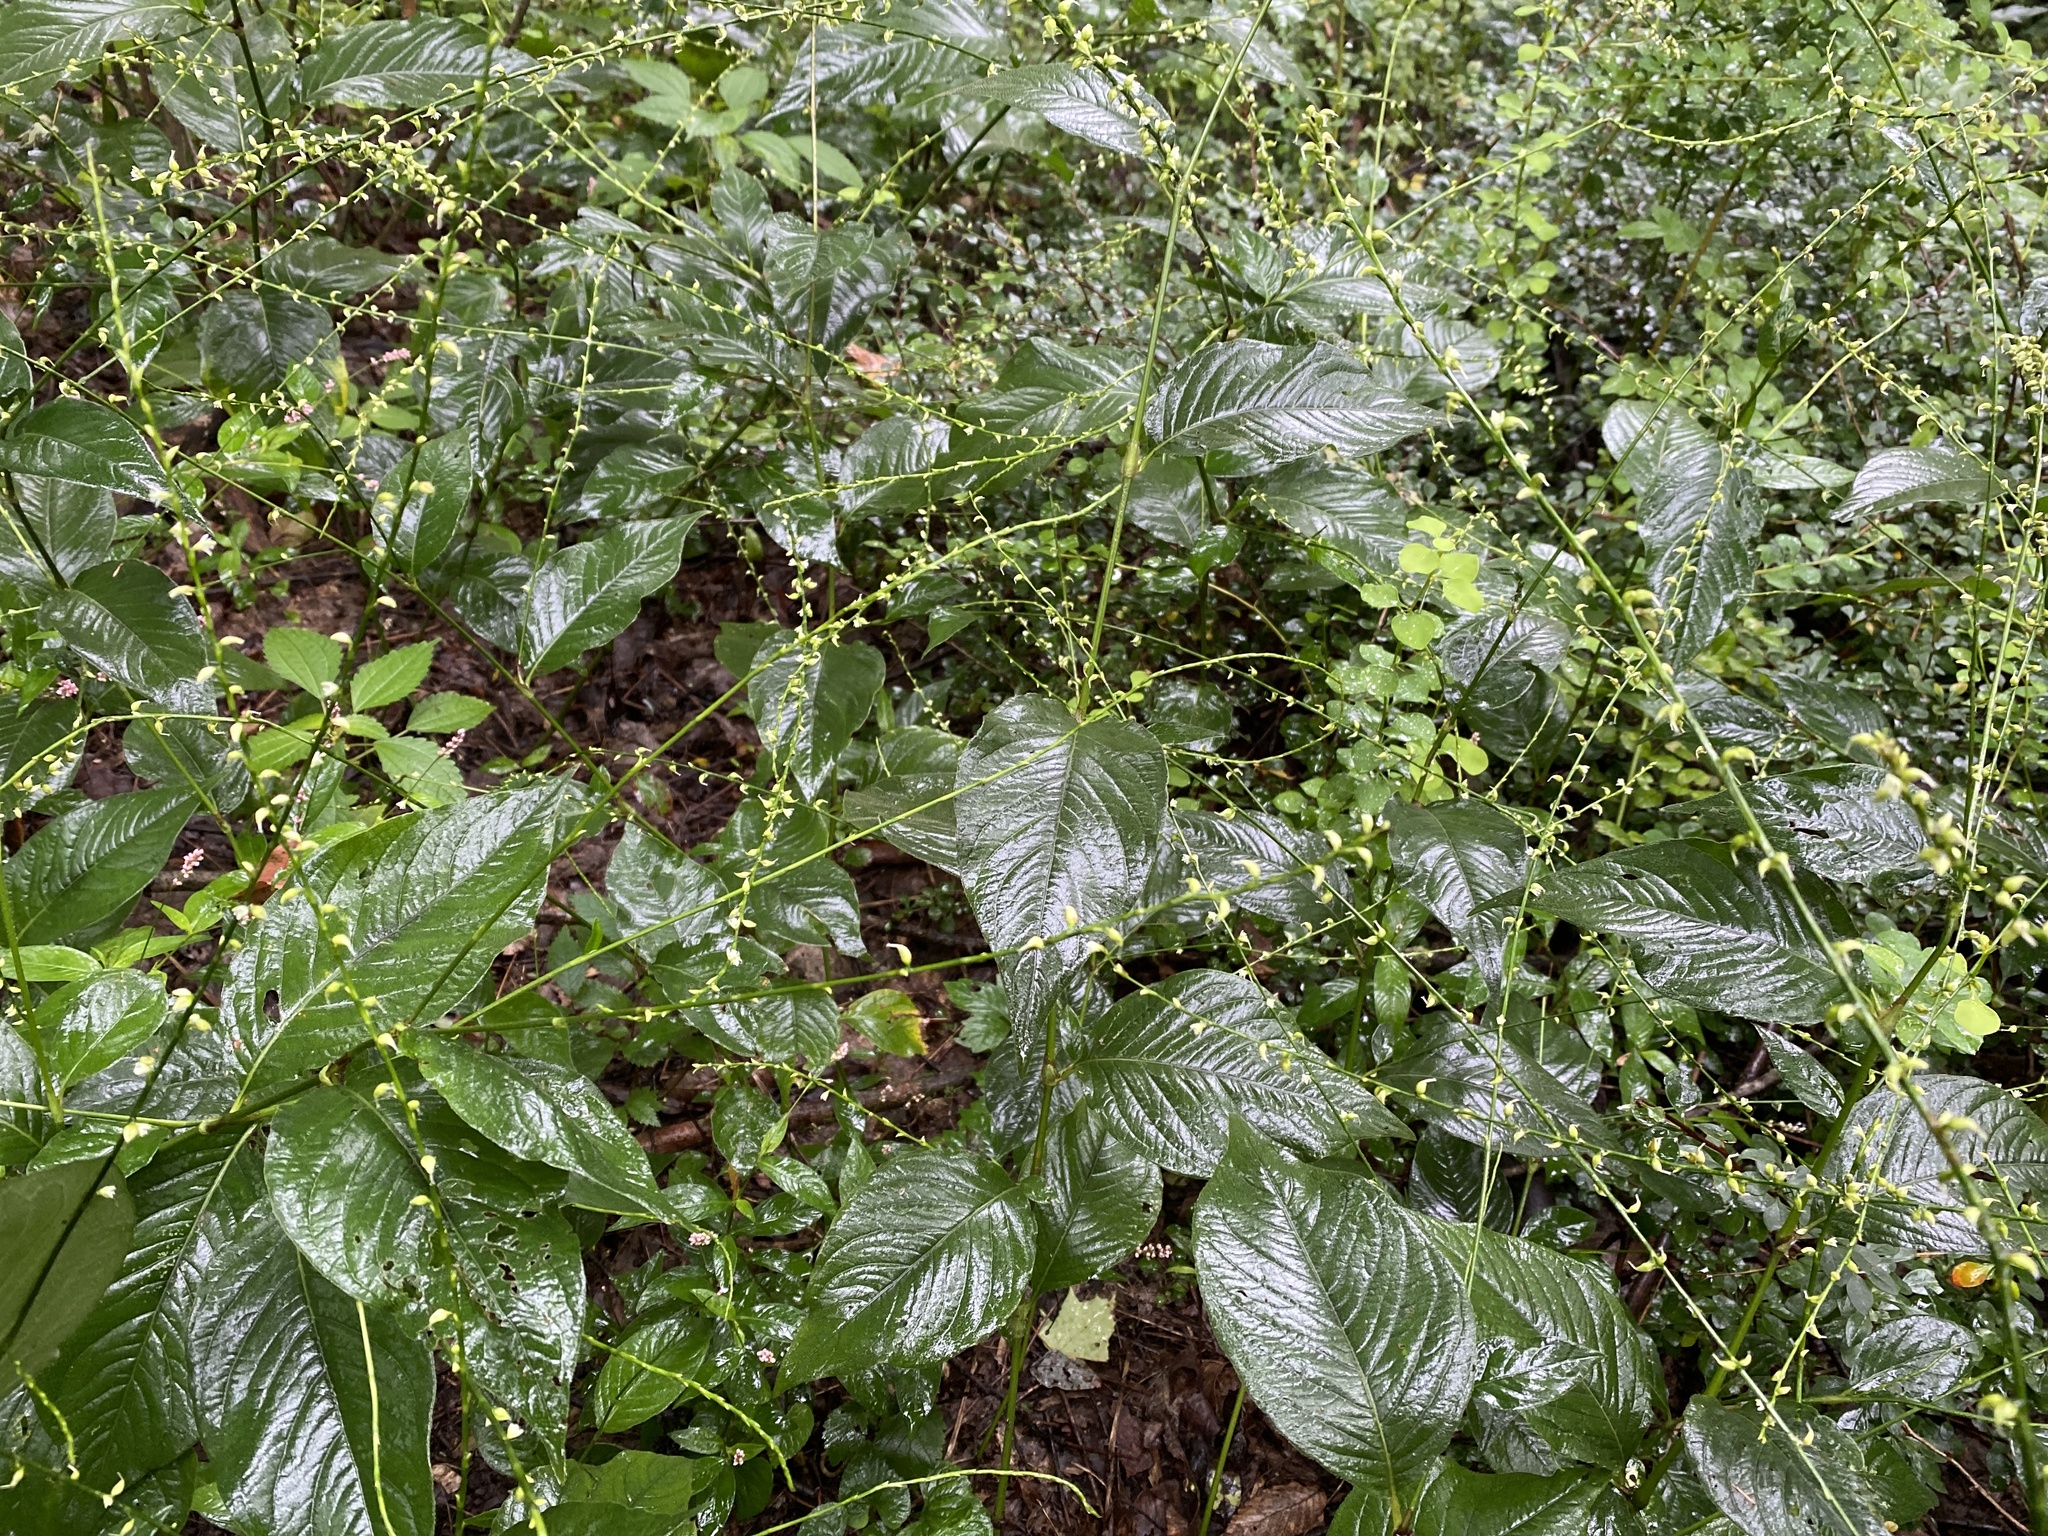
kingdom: Plantae
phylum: Tracheophyta
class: Magnoliopsida
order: Caryophyllales
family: Polygonaceae
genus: Persicaria
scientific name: Persicaria virginiana
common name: Jumpseed
